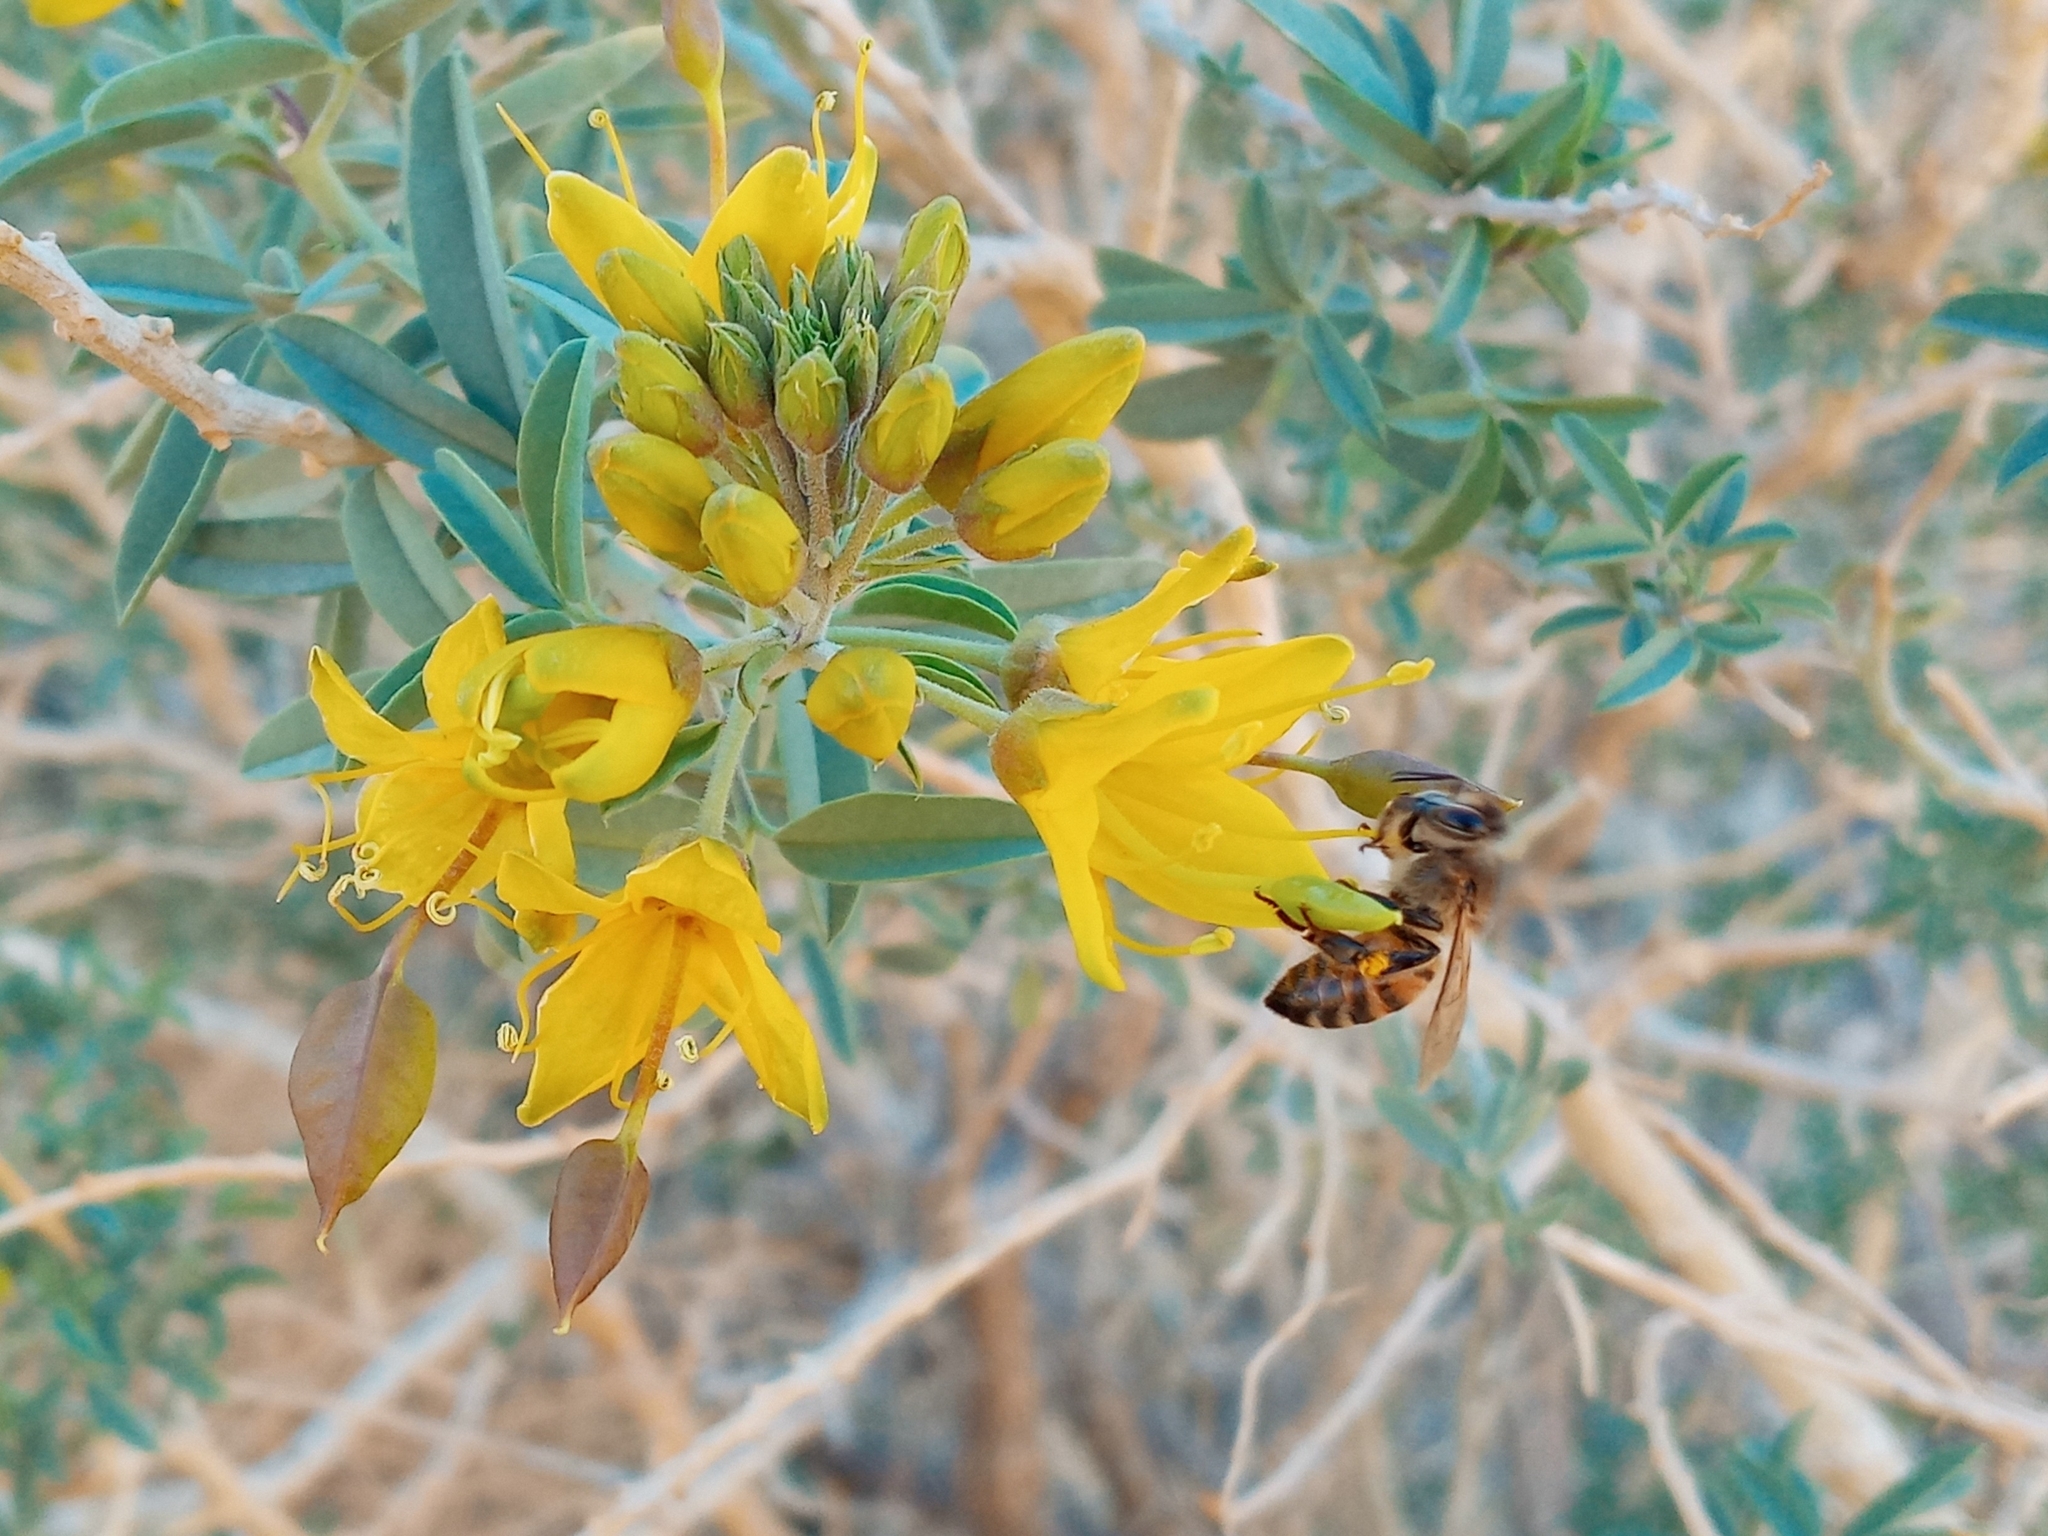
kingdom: Animalia
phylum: Arthropoda
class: Insecta
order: Hymenoptera
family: Apidae
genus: Apis
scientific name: Apis mellifera
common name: Honey bee
